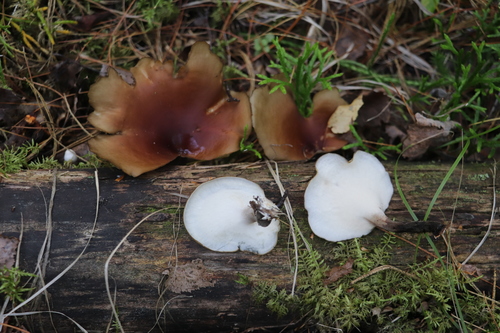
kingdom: Fungi
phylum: Basidiomycota
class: Agaricomycetes
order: Polyporales
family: Polyporaceae
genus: Picipes
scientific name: Picipes badius
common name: Bay polypore
